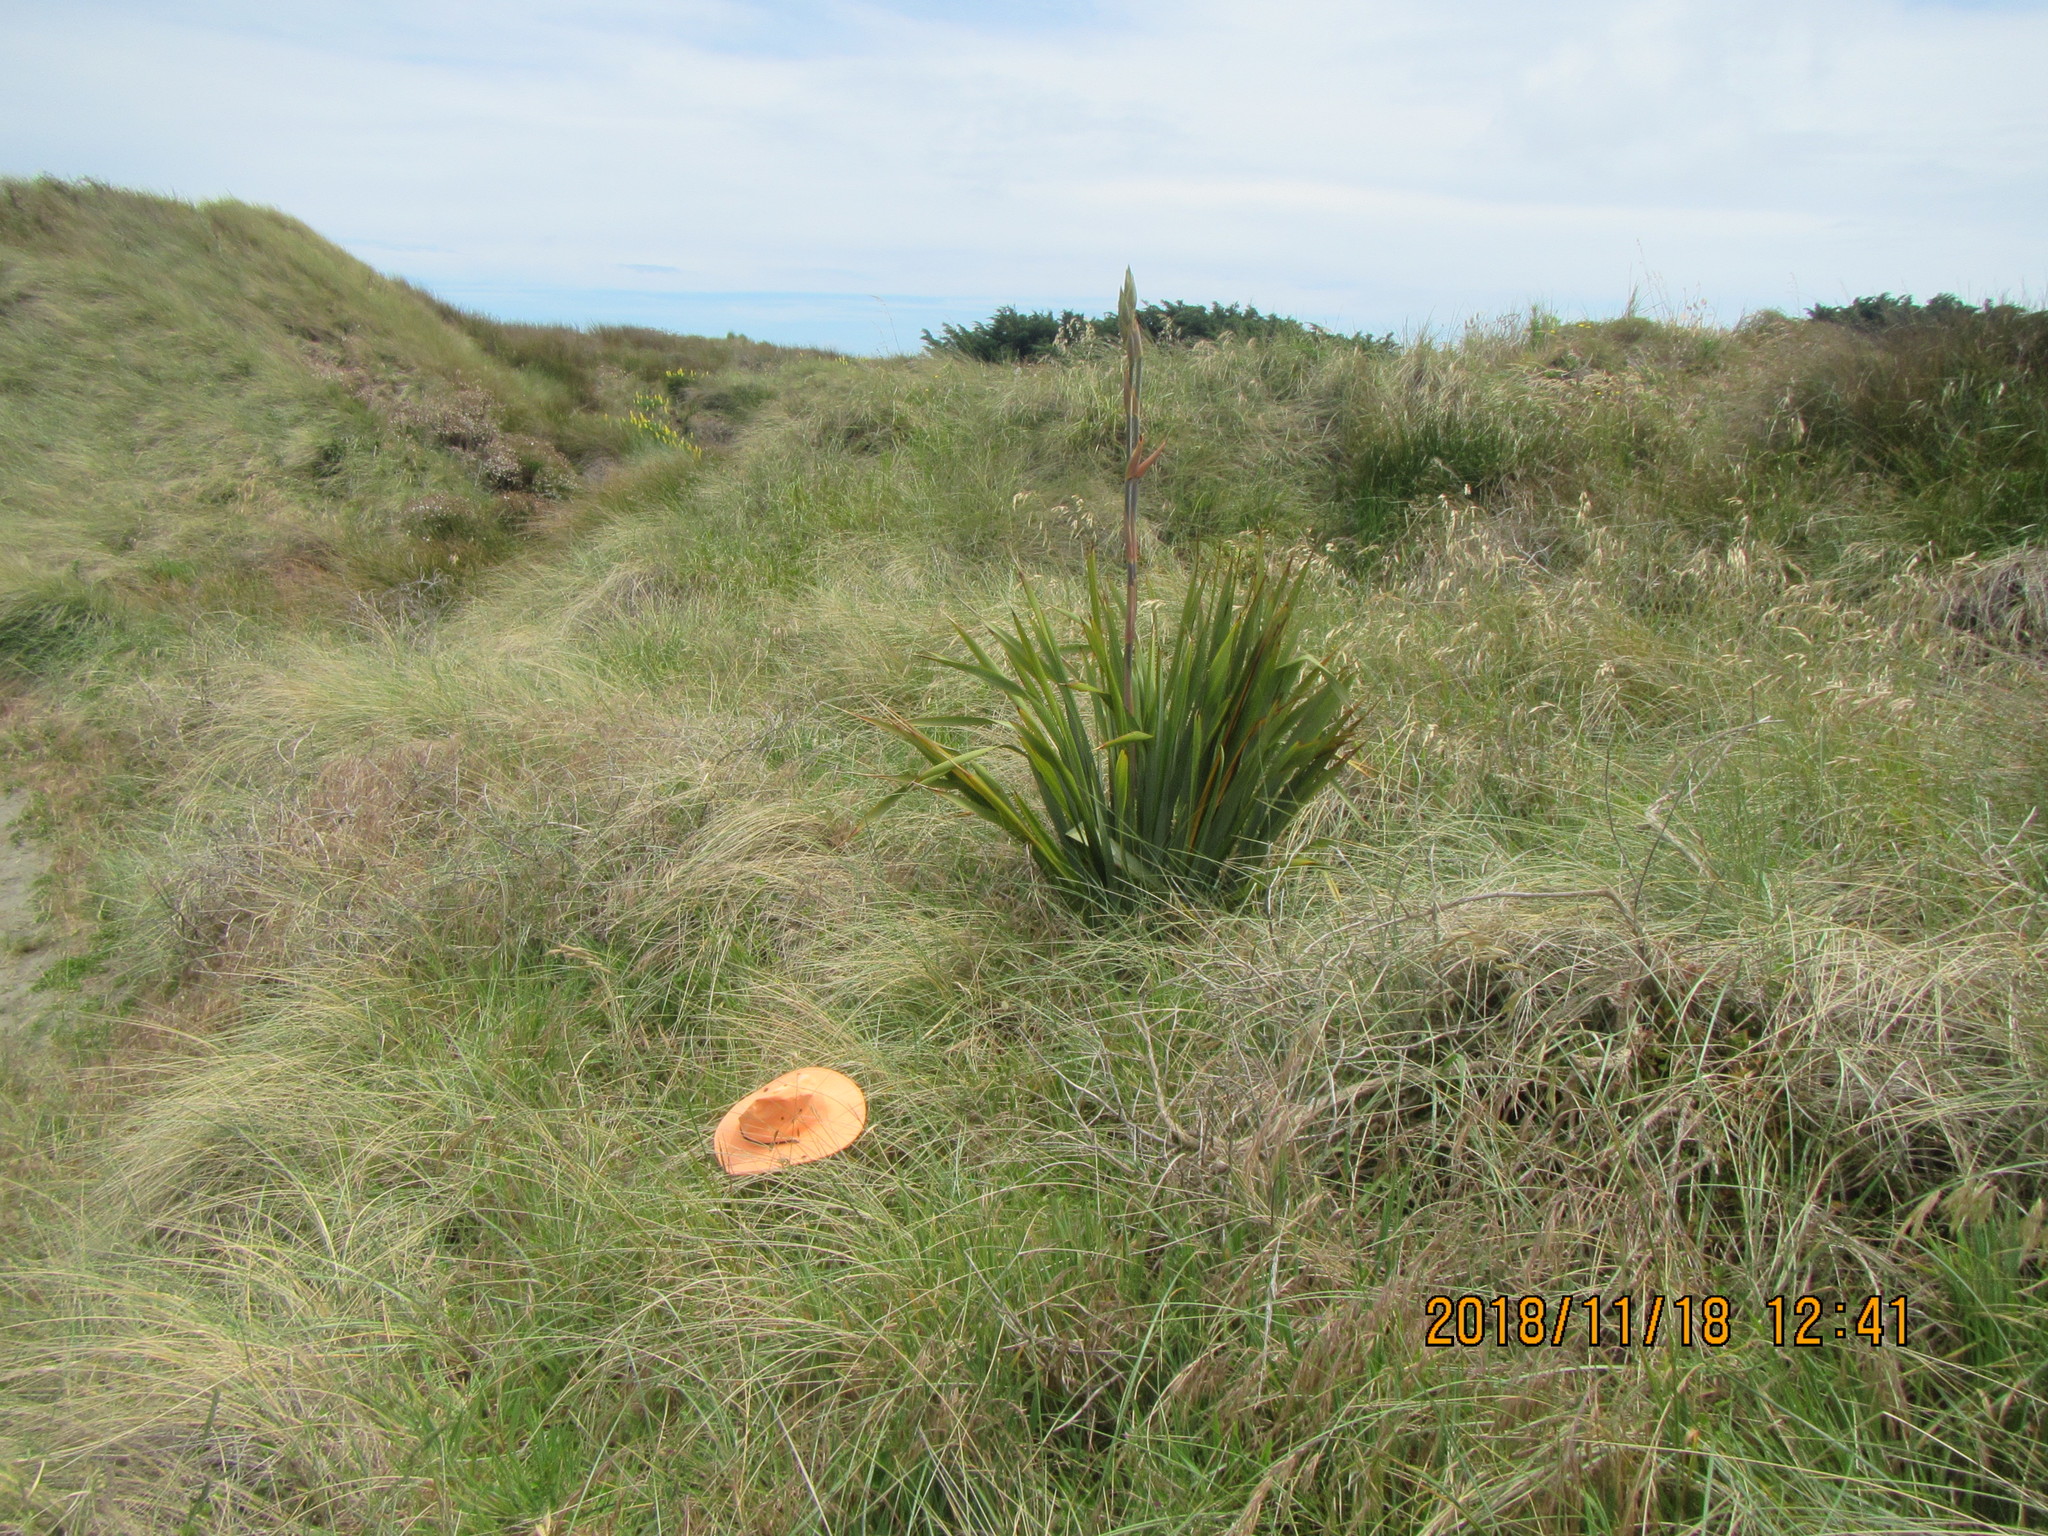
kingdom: Plantae
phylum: Tracheophyta
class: Magnoliopsida
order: Fabales
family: Fabaceae
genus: Vicia
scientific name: Vicia sativa
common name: Garden vetch
